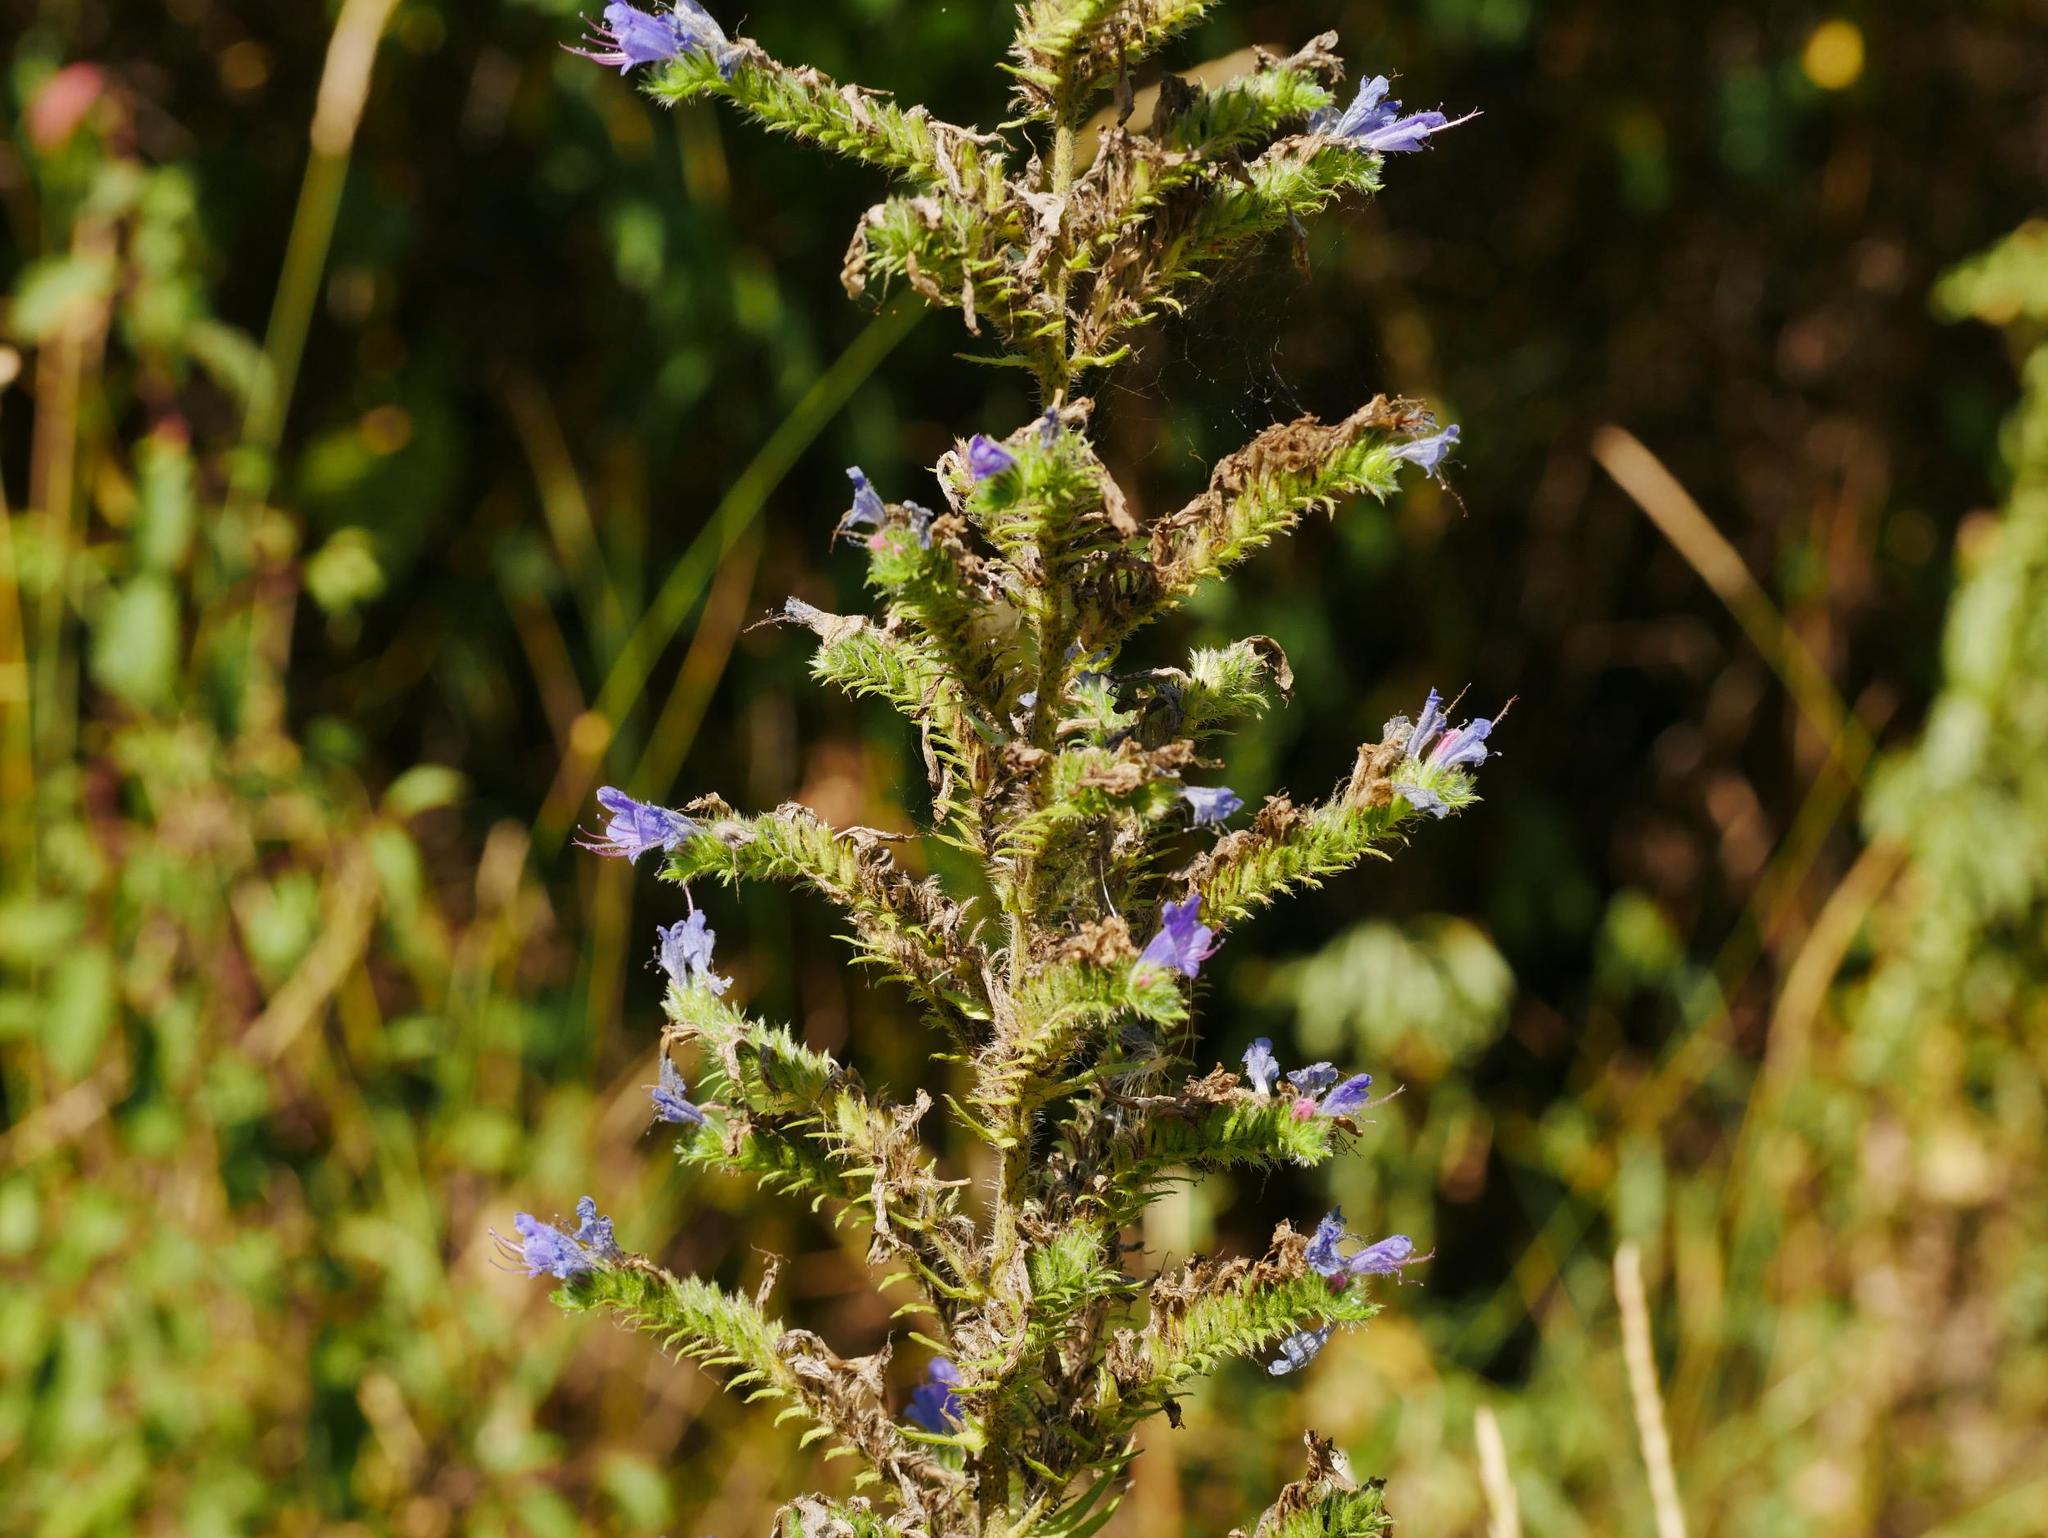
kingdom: Plantae
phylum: Tracheophyta
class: Magnoliopsida
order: Boraginales
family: Boraginaceae
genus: Echium
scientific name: Echium vulgare
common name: Common viper's bugloss
